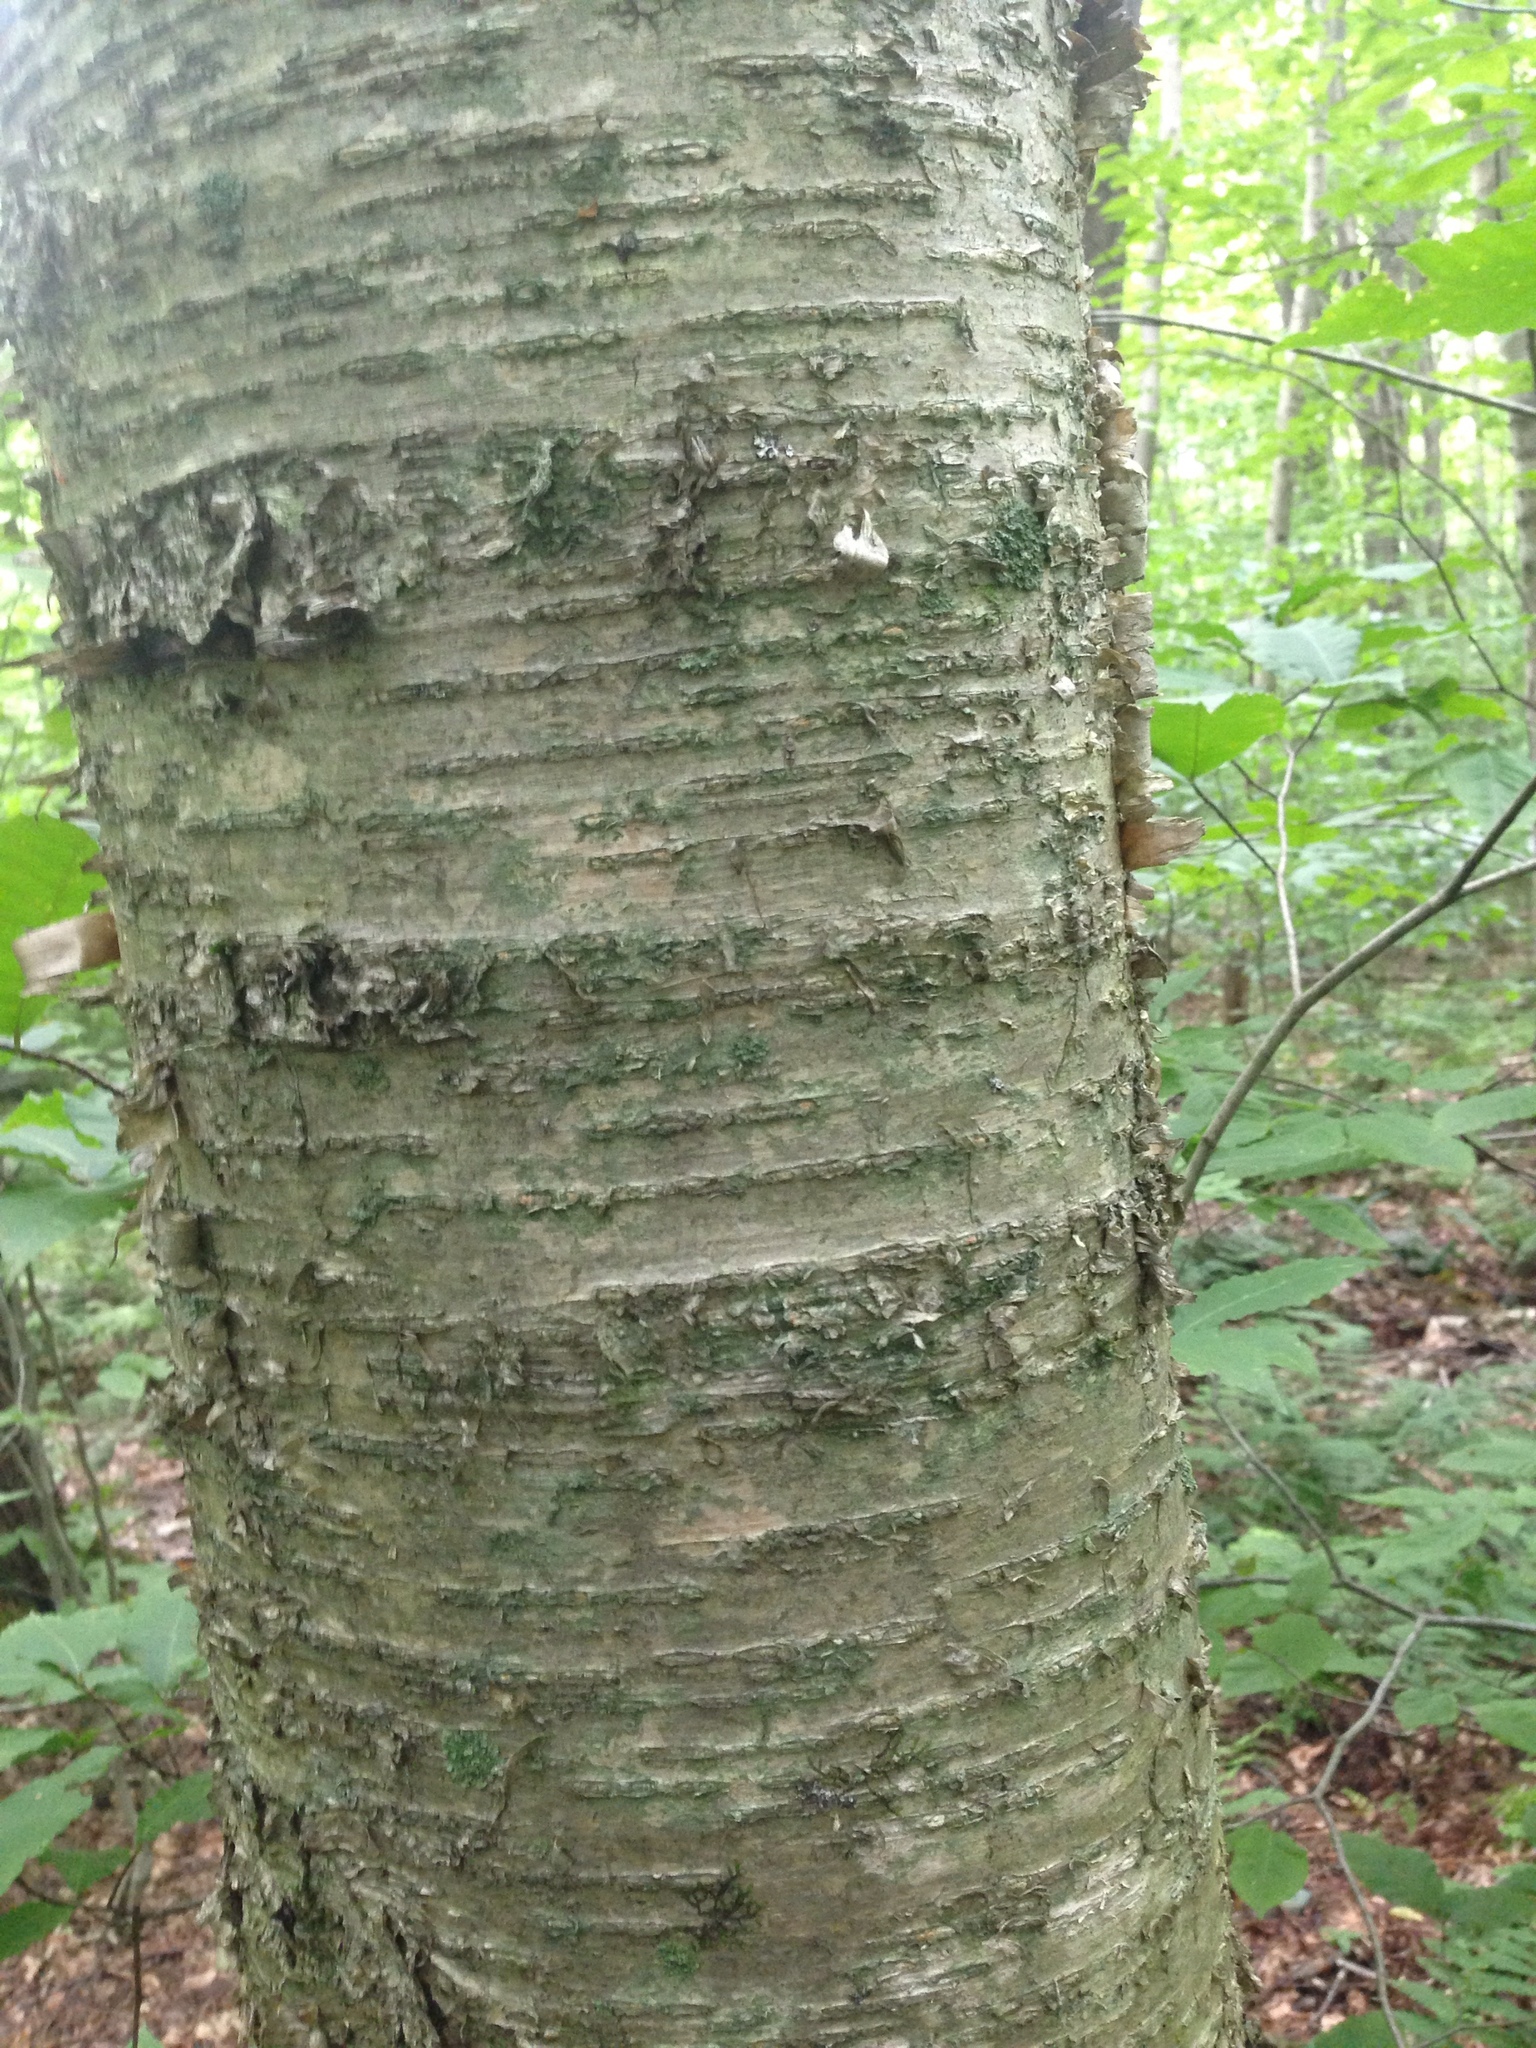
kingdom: Plantae
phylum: Tracheophyta
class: Magnoliopsida
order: Fagales
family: Betulaceae
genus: Betula
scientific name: Betula alleghaniensis
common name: Yellow birch
